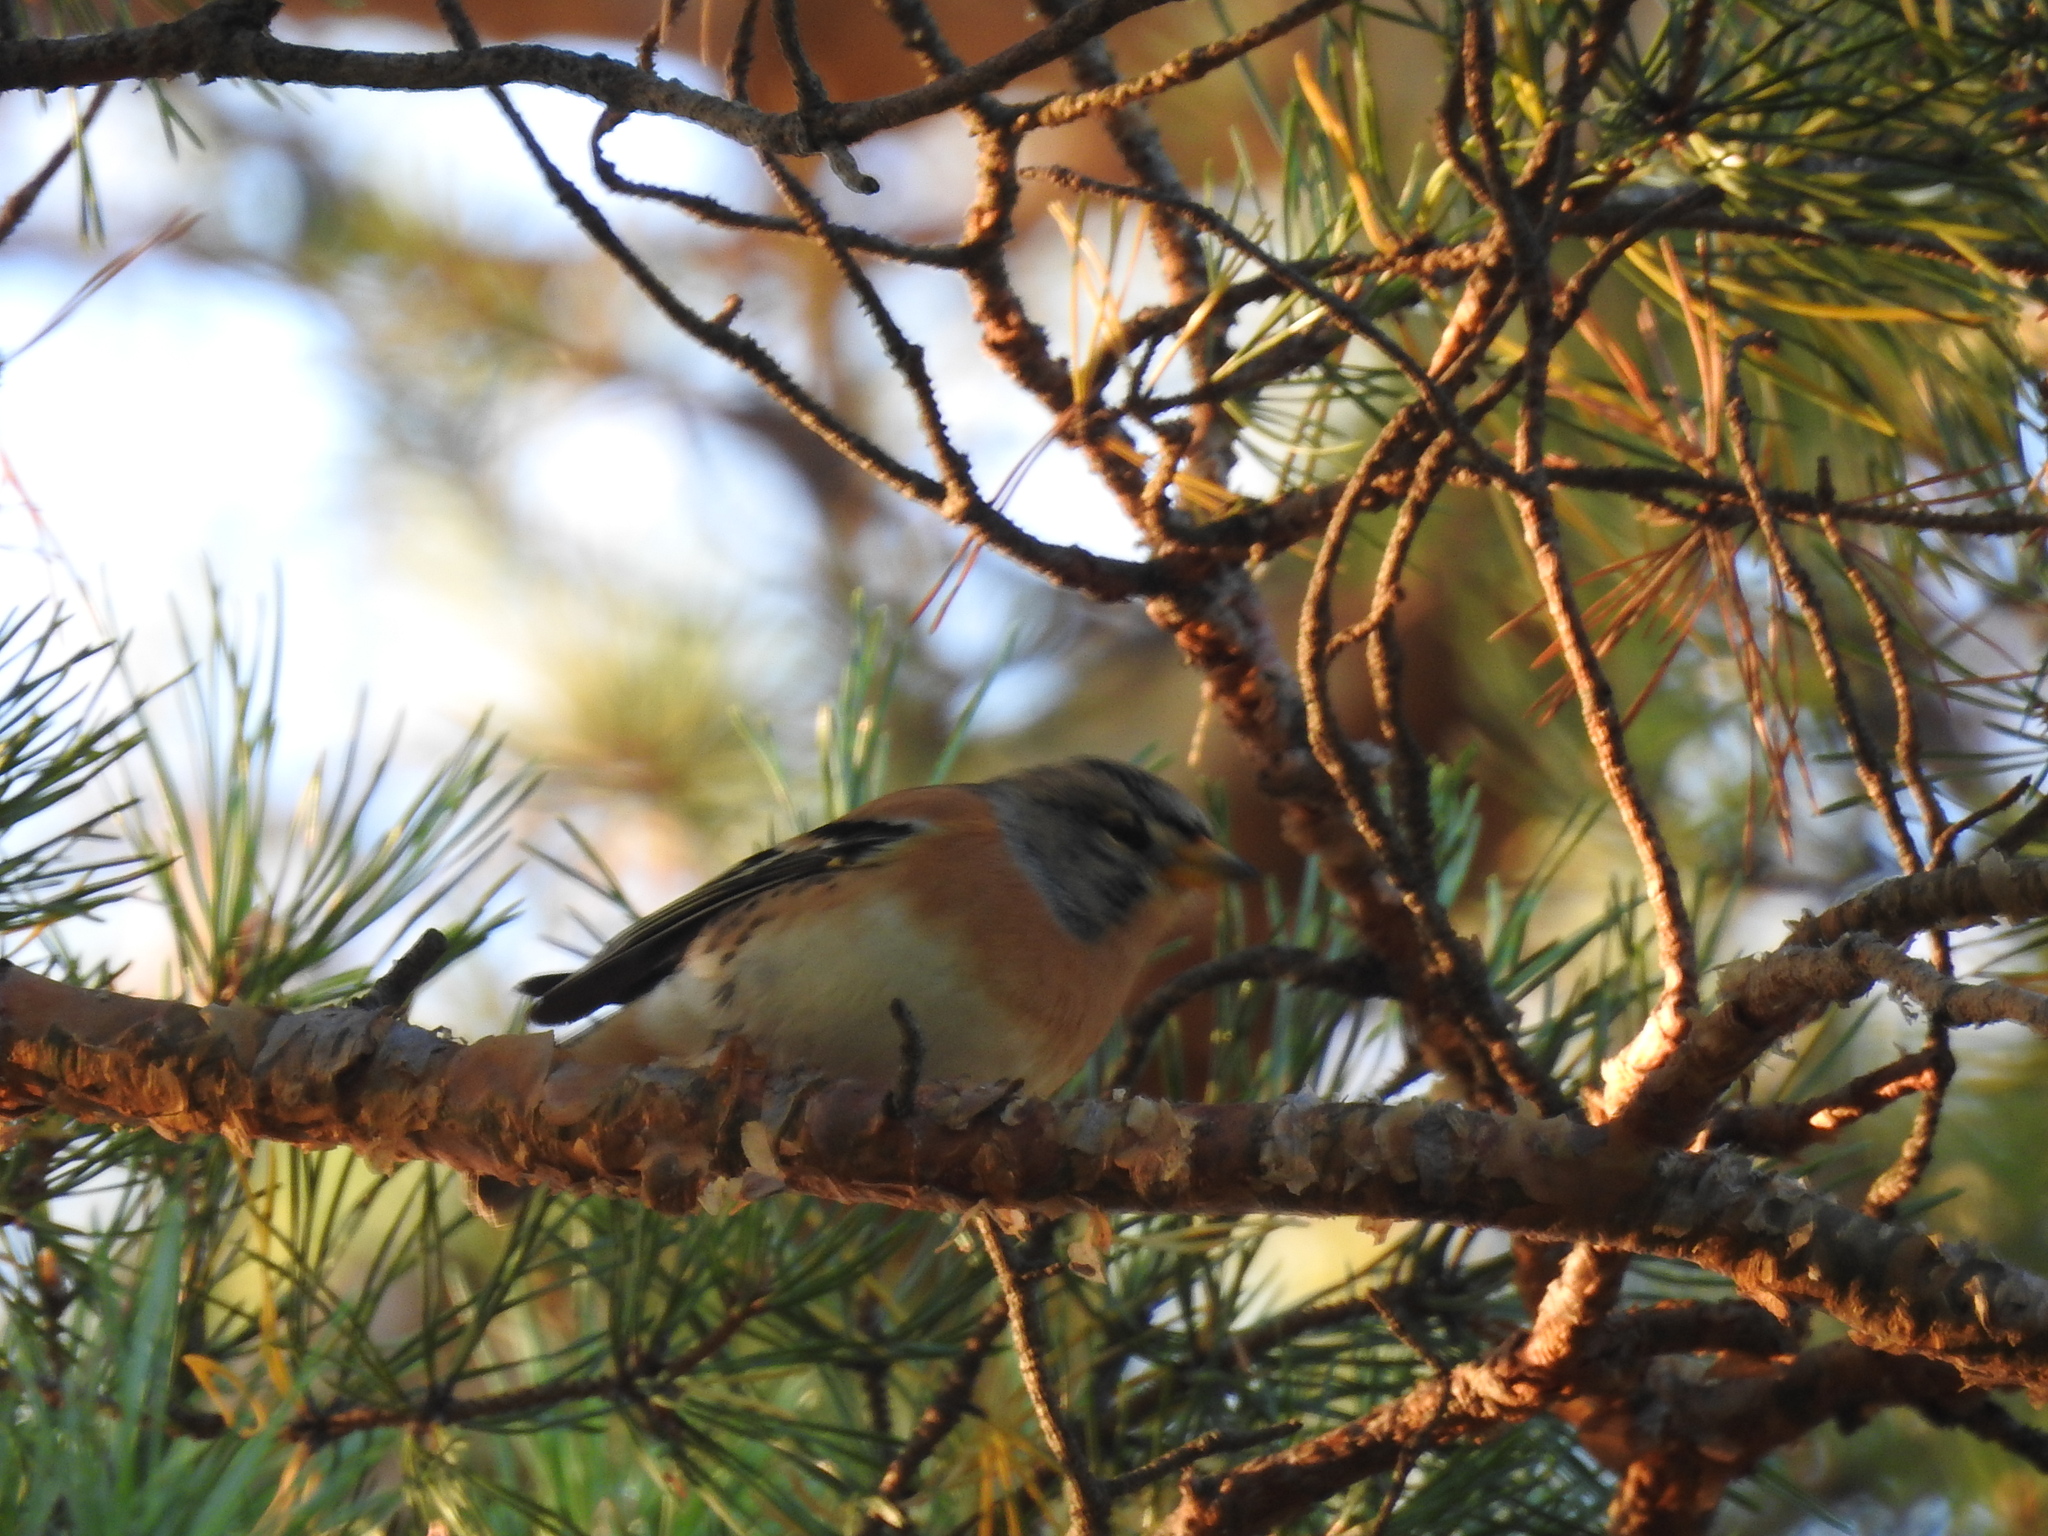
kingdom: Animalia
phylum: Chordata
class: Aves
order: Passeriformes
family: Fringillidae
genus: Fringilla
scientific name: Fringilla montifringilla
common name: Brambling
